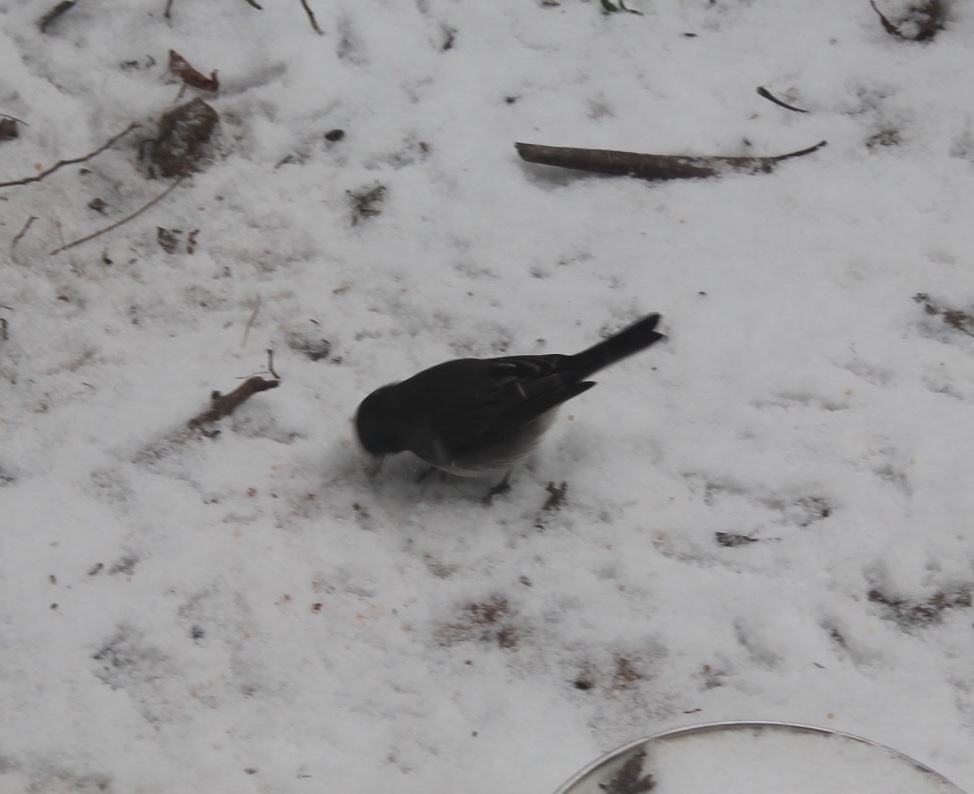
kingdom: Animalia
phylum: Chordata
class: Aves
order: Passeriformes
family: Passerellidae
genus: Junco
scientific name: Junco hyemalis
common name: Dark-eyed junco
